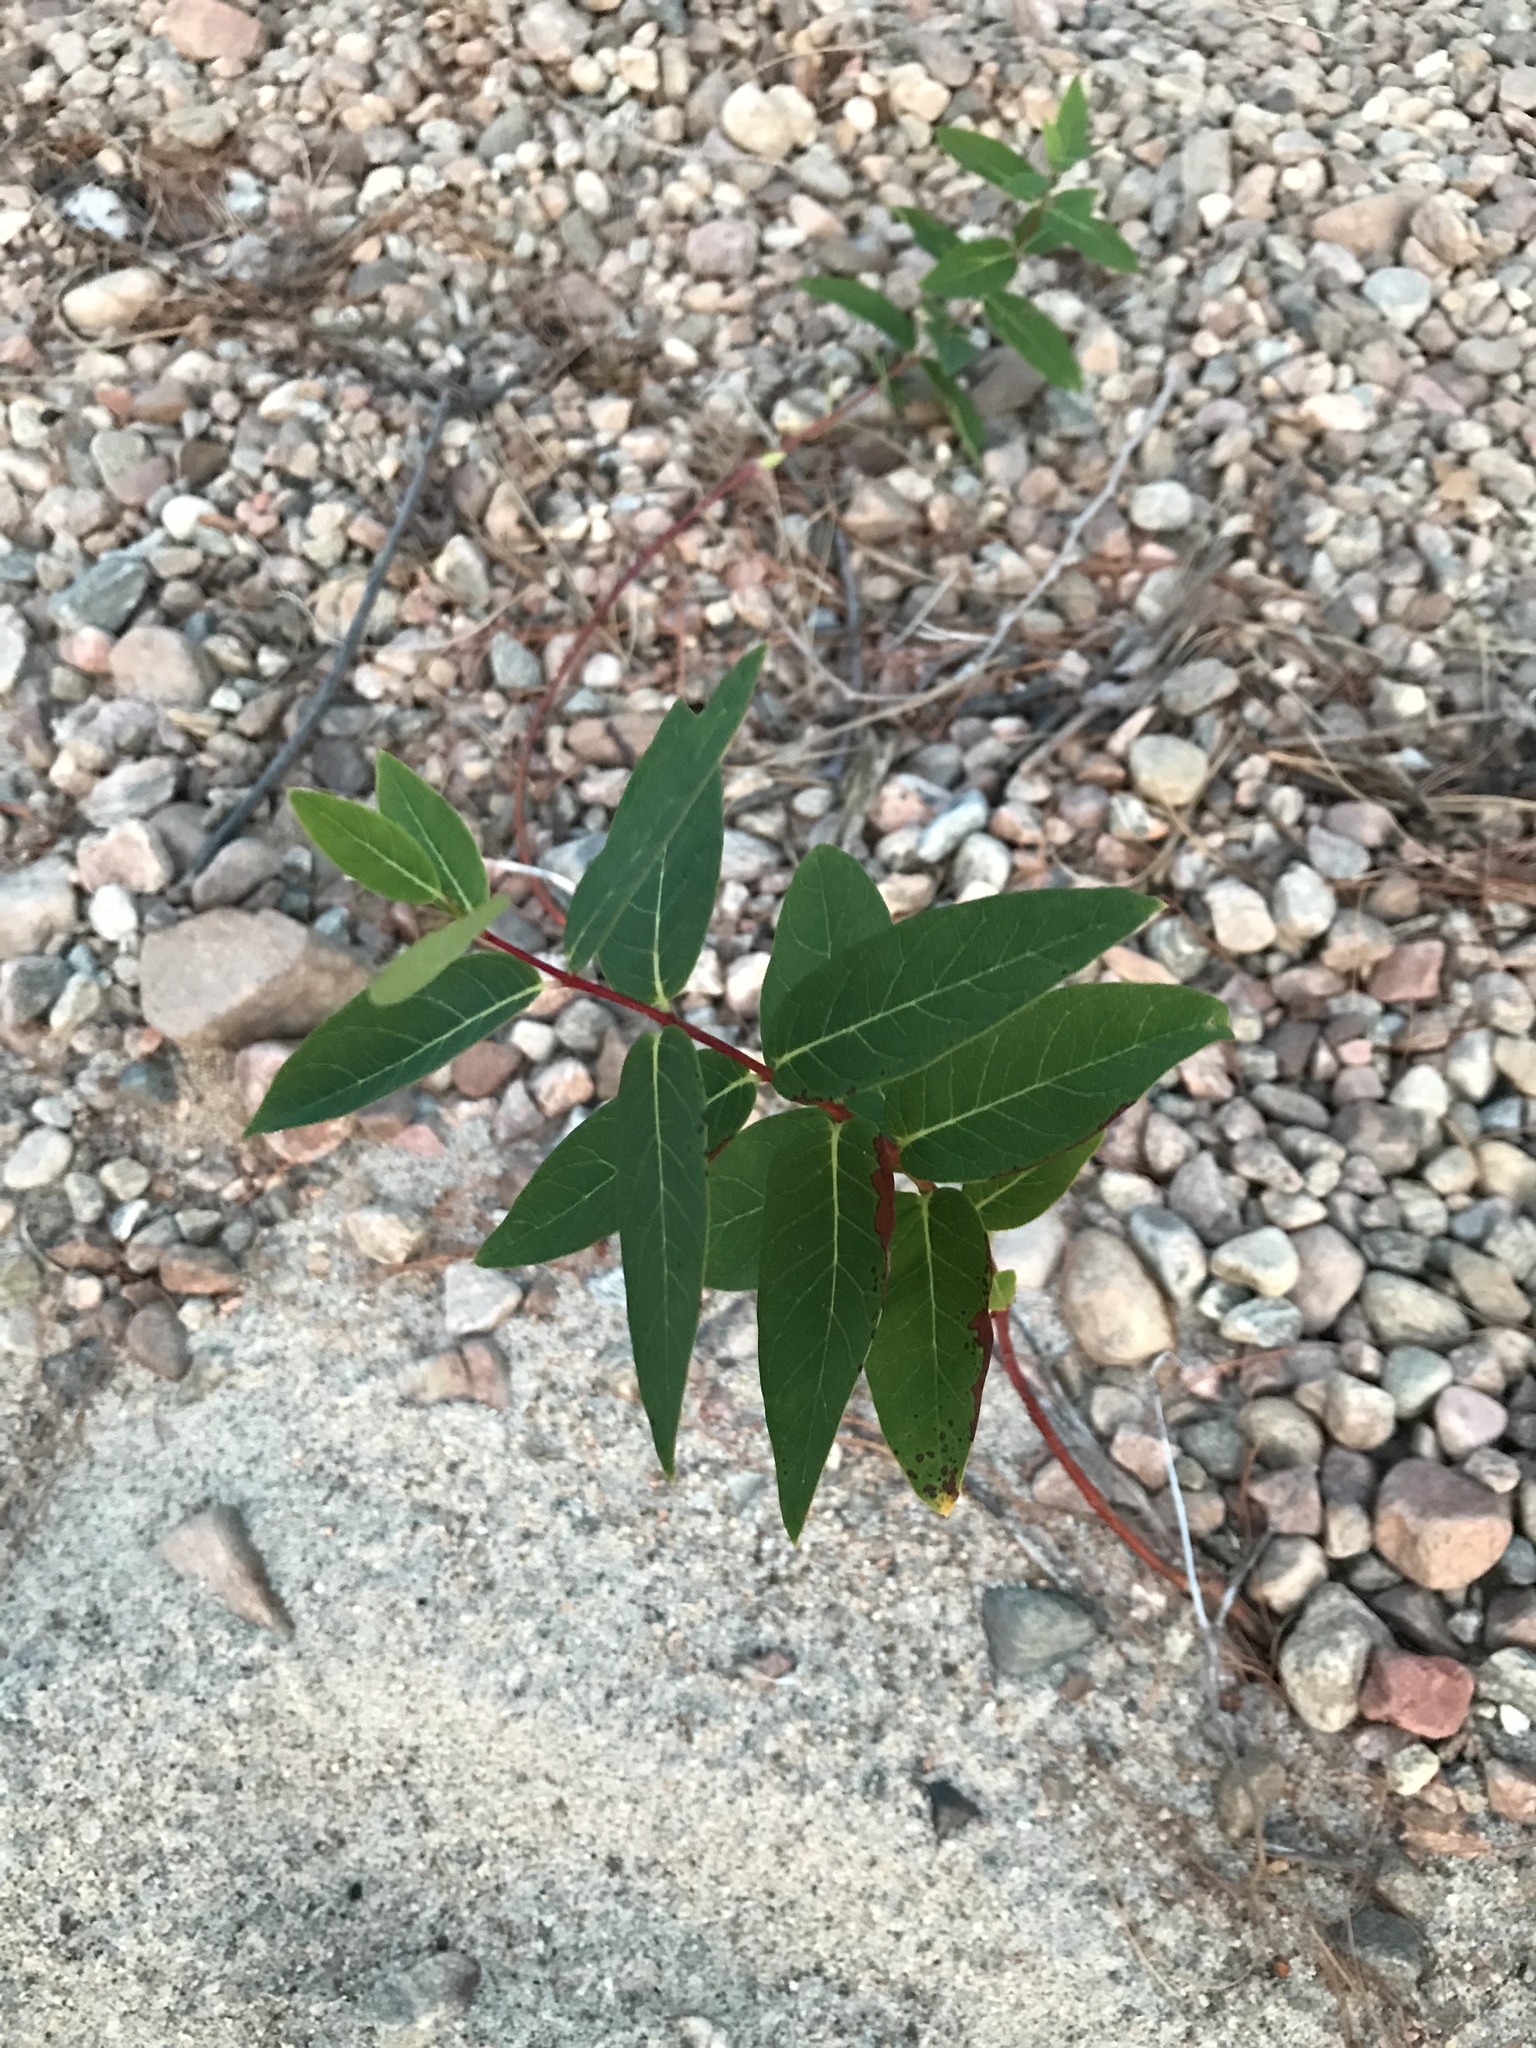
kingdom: Plantae
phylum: Tracheophyta
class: Magnoliopsida
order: Gentianales
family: Apocynaceae
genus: Apocynum
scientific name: Apocynum androsaemifolium
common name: Spreading dogbane
